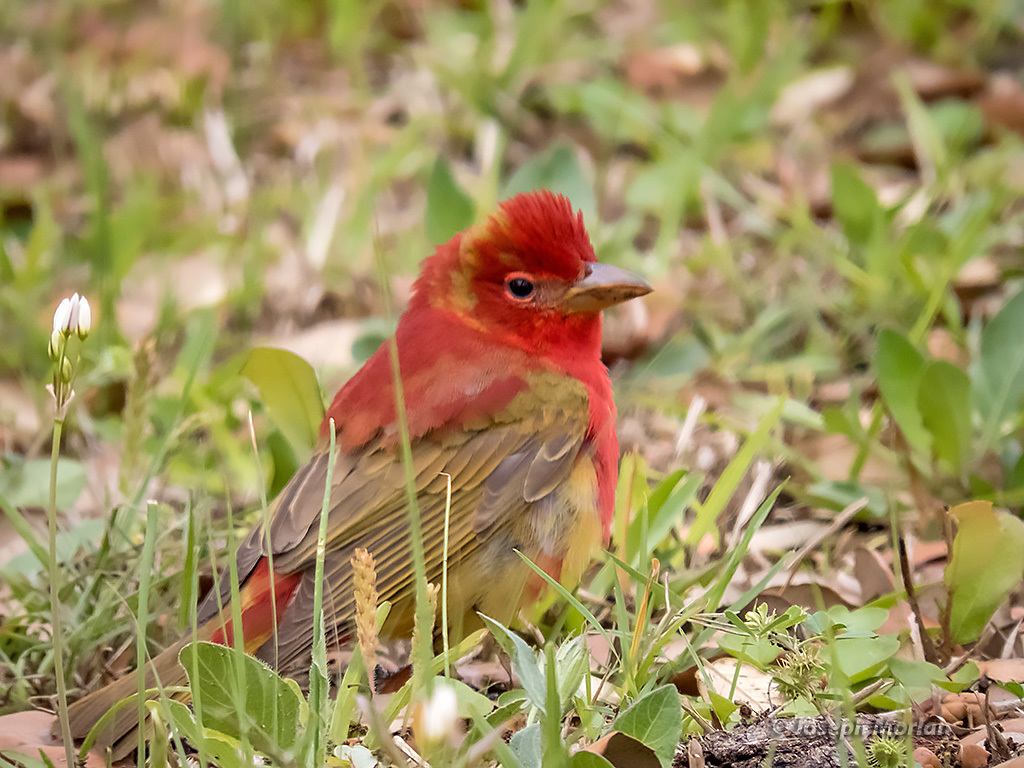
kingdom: Animalia
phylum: Chordata
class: Aves
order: Passeriformes
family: Cardinalidae
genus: Piranga
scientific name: Piranga rubra
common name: Summer tanager
